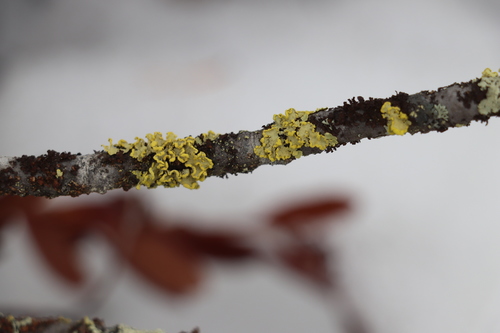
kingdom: Fungi
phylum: Ascomycota
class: Lecanoromycetes
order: Lecanorales
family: Parmeliaceae
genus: Vulpicida
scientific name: Vulpicida pinastri
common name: Powdered sunshine lichen
